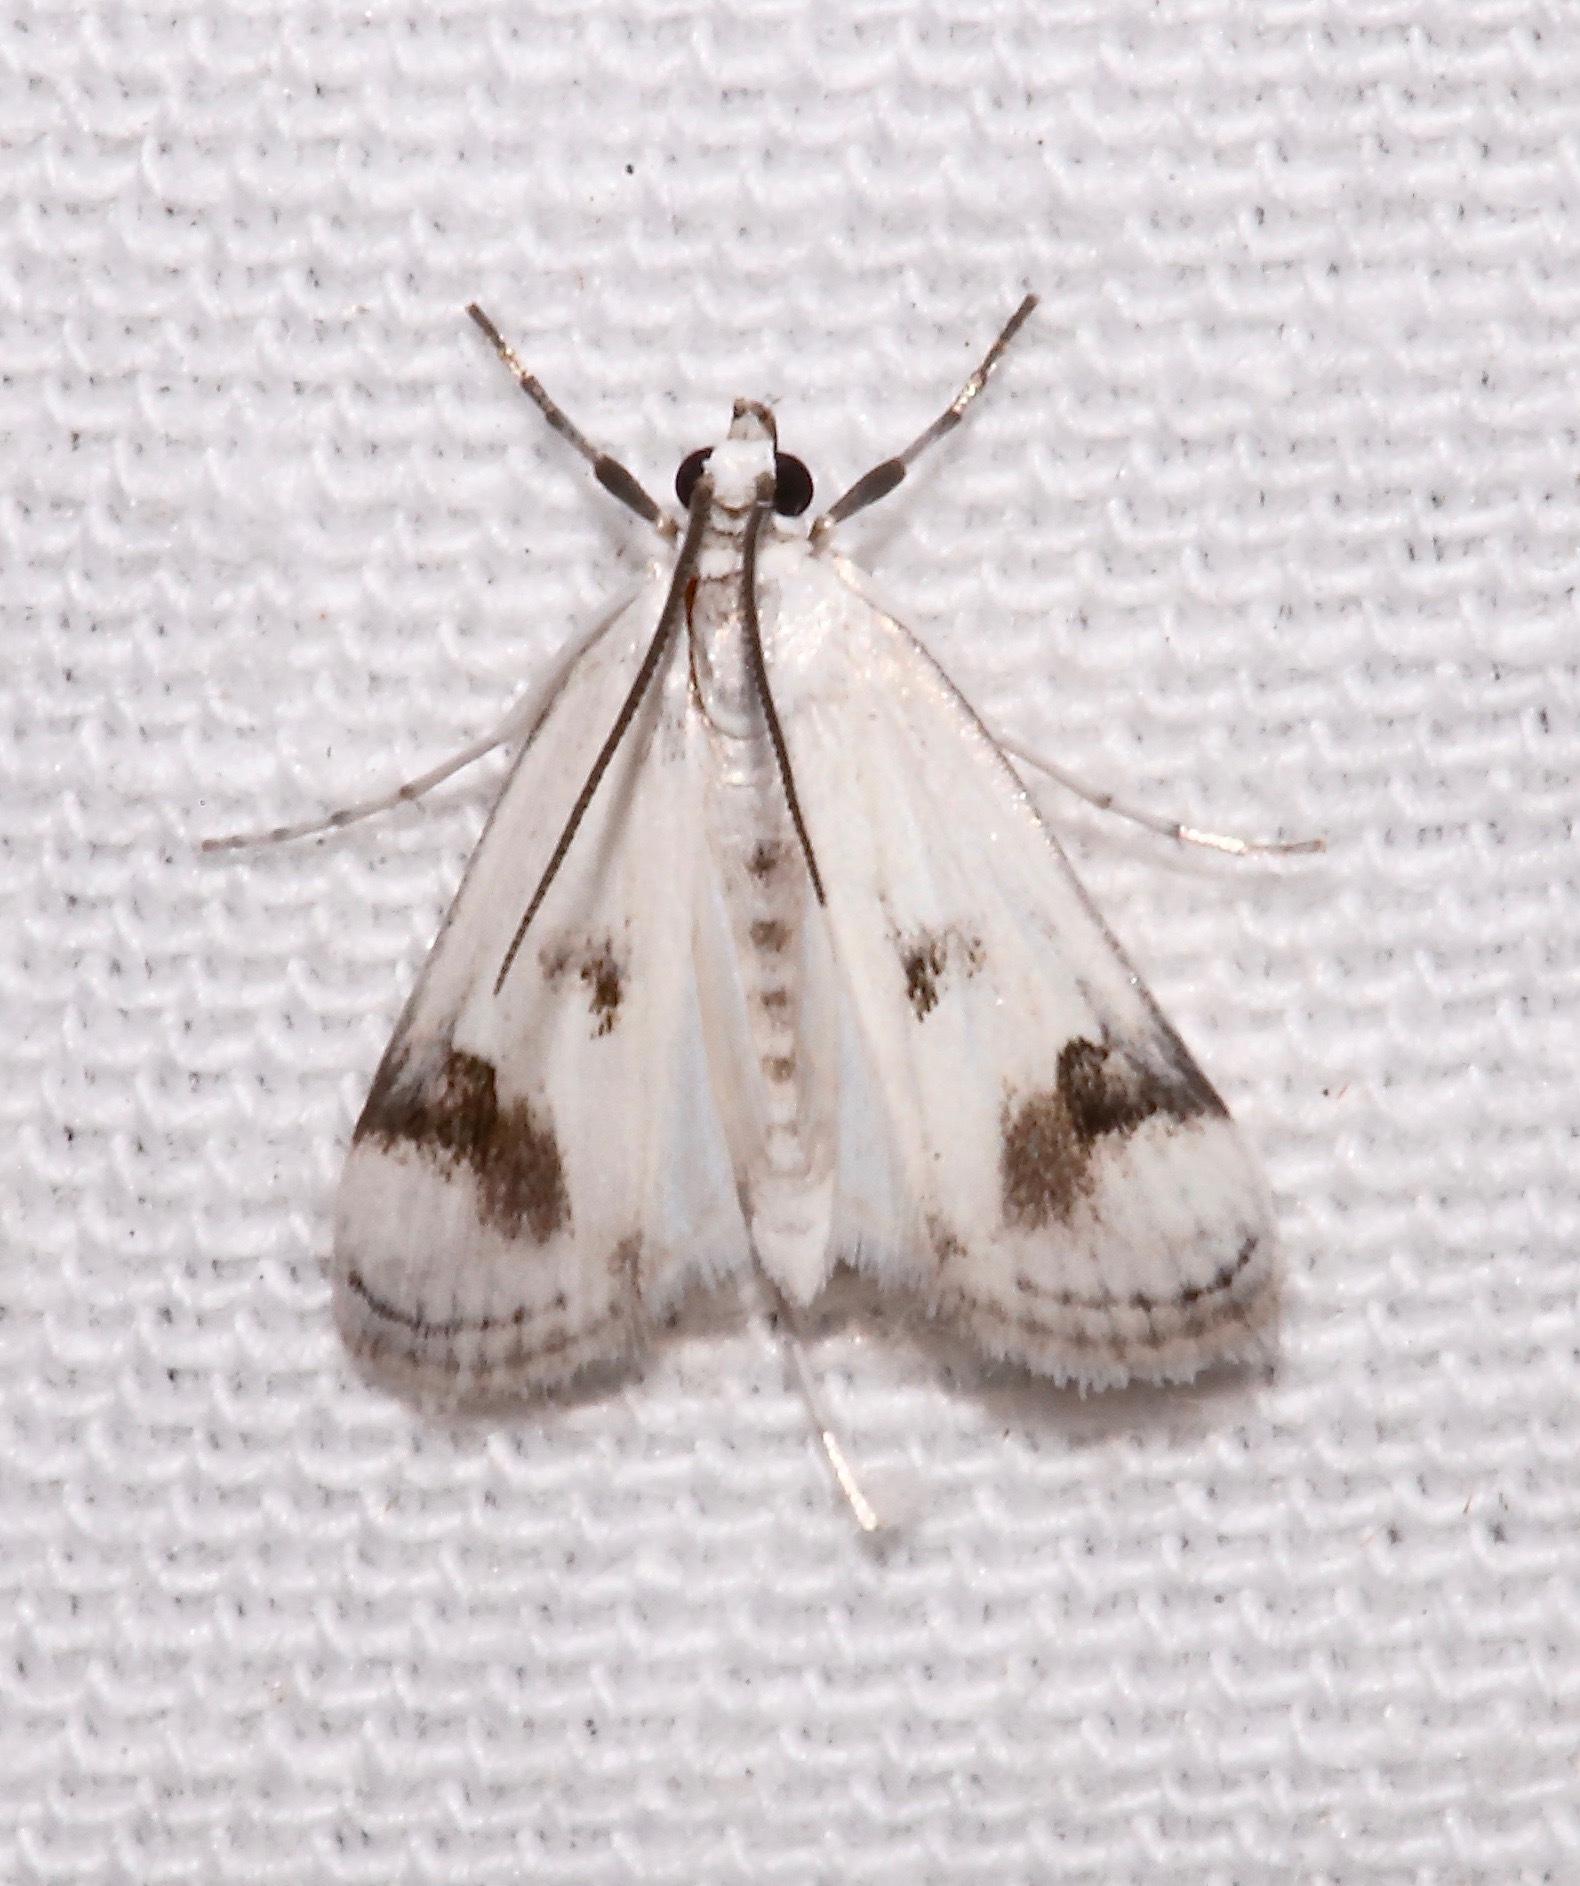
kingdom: Animalia
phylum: Arthropoda
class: Insecta
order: Lepidoptera
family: Crambidae
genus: Parapoynx
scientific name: Parapoynx maculalis
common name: Polymorphic pondweed moth
